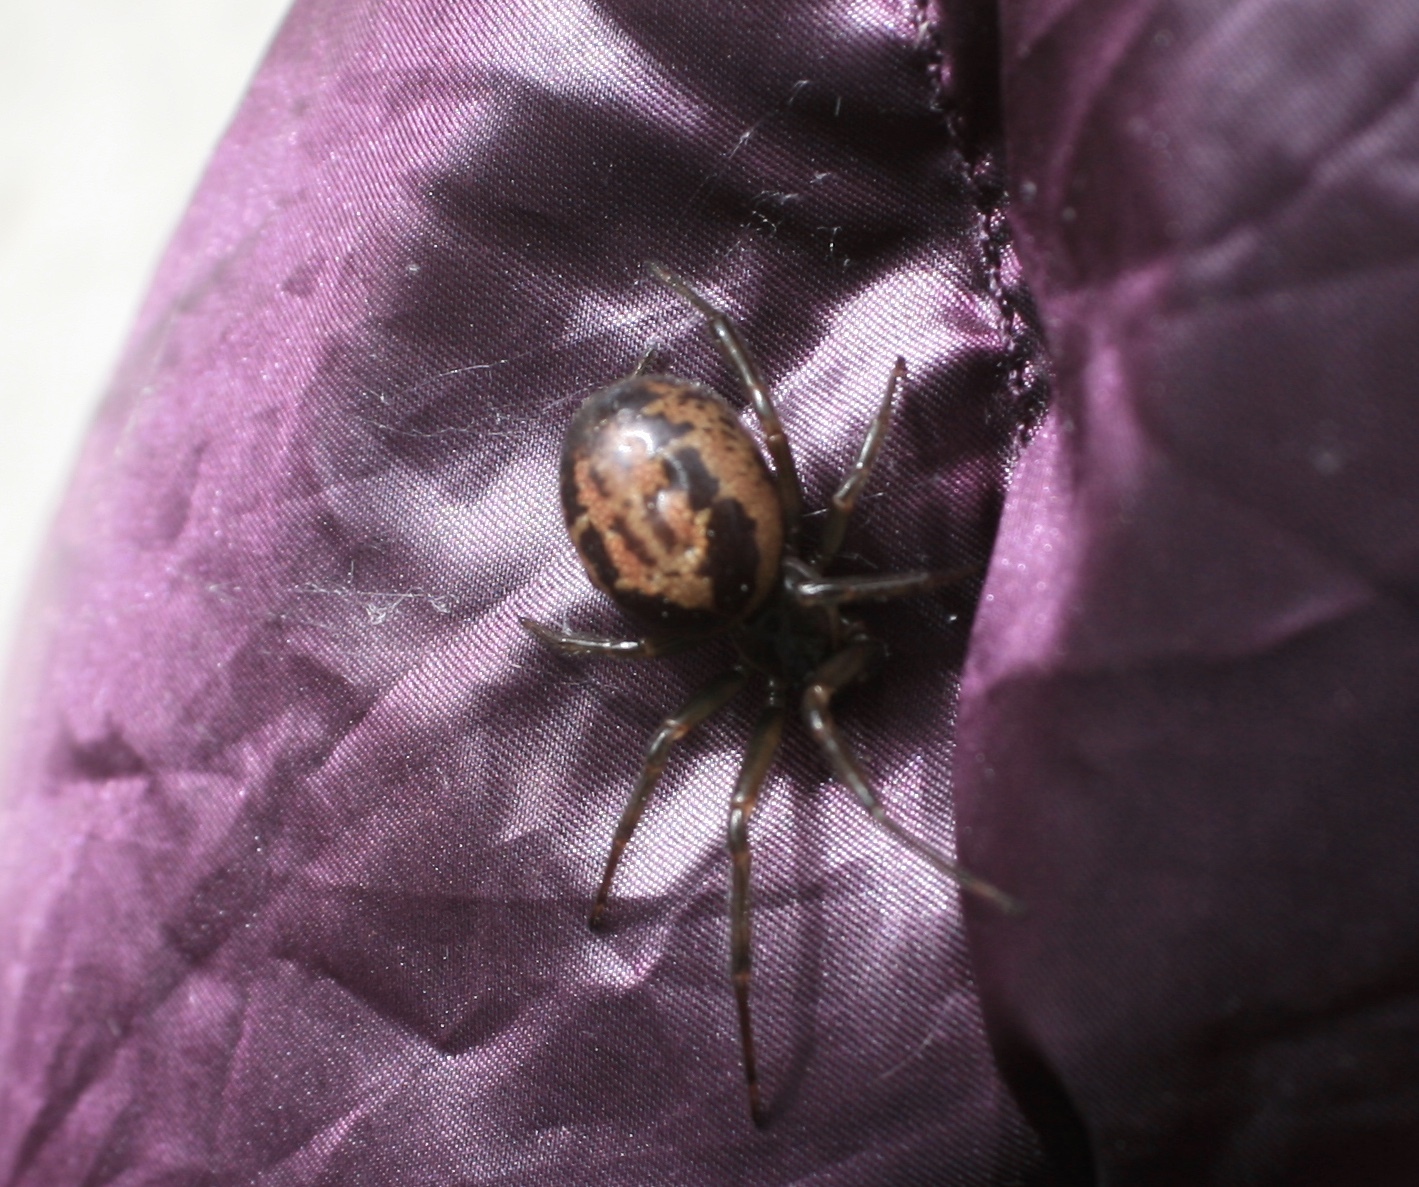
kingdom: Animalia
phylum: Arthropoda
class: Arachnida
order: Araneae
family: Theridiidae
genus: Steatoda
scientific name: Steatoda nobilis
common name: Cobweb weaver
